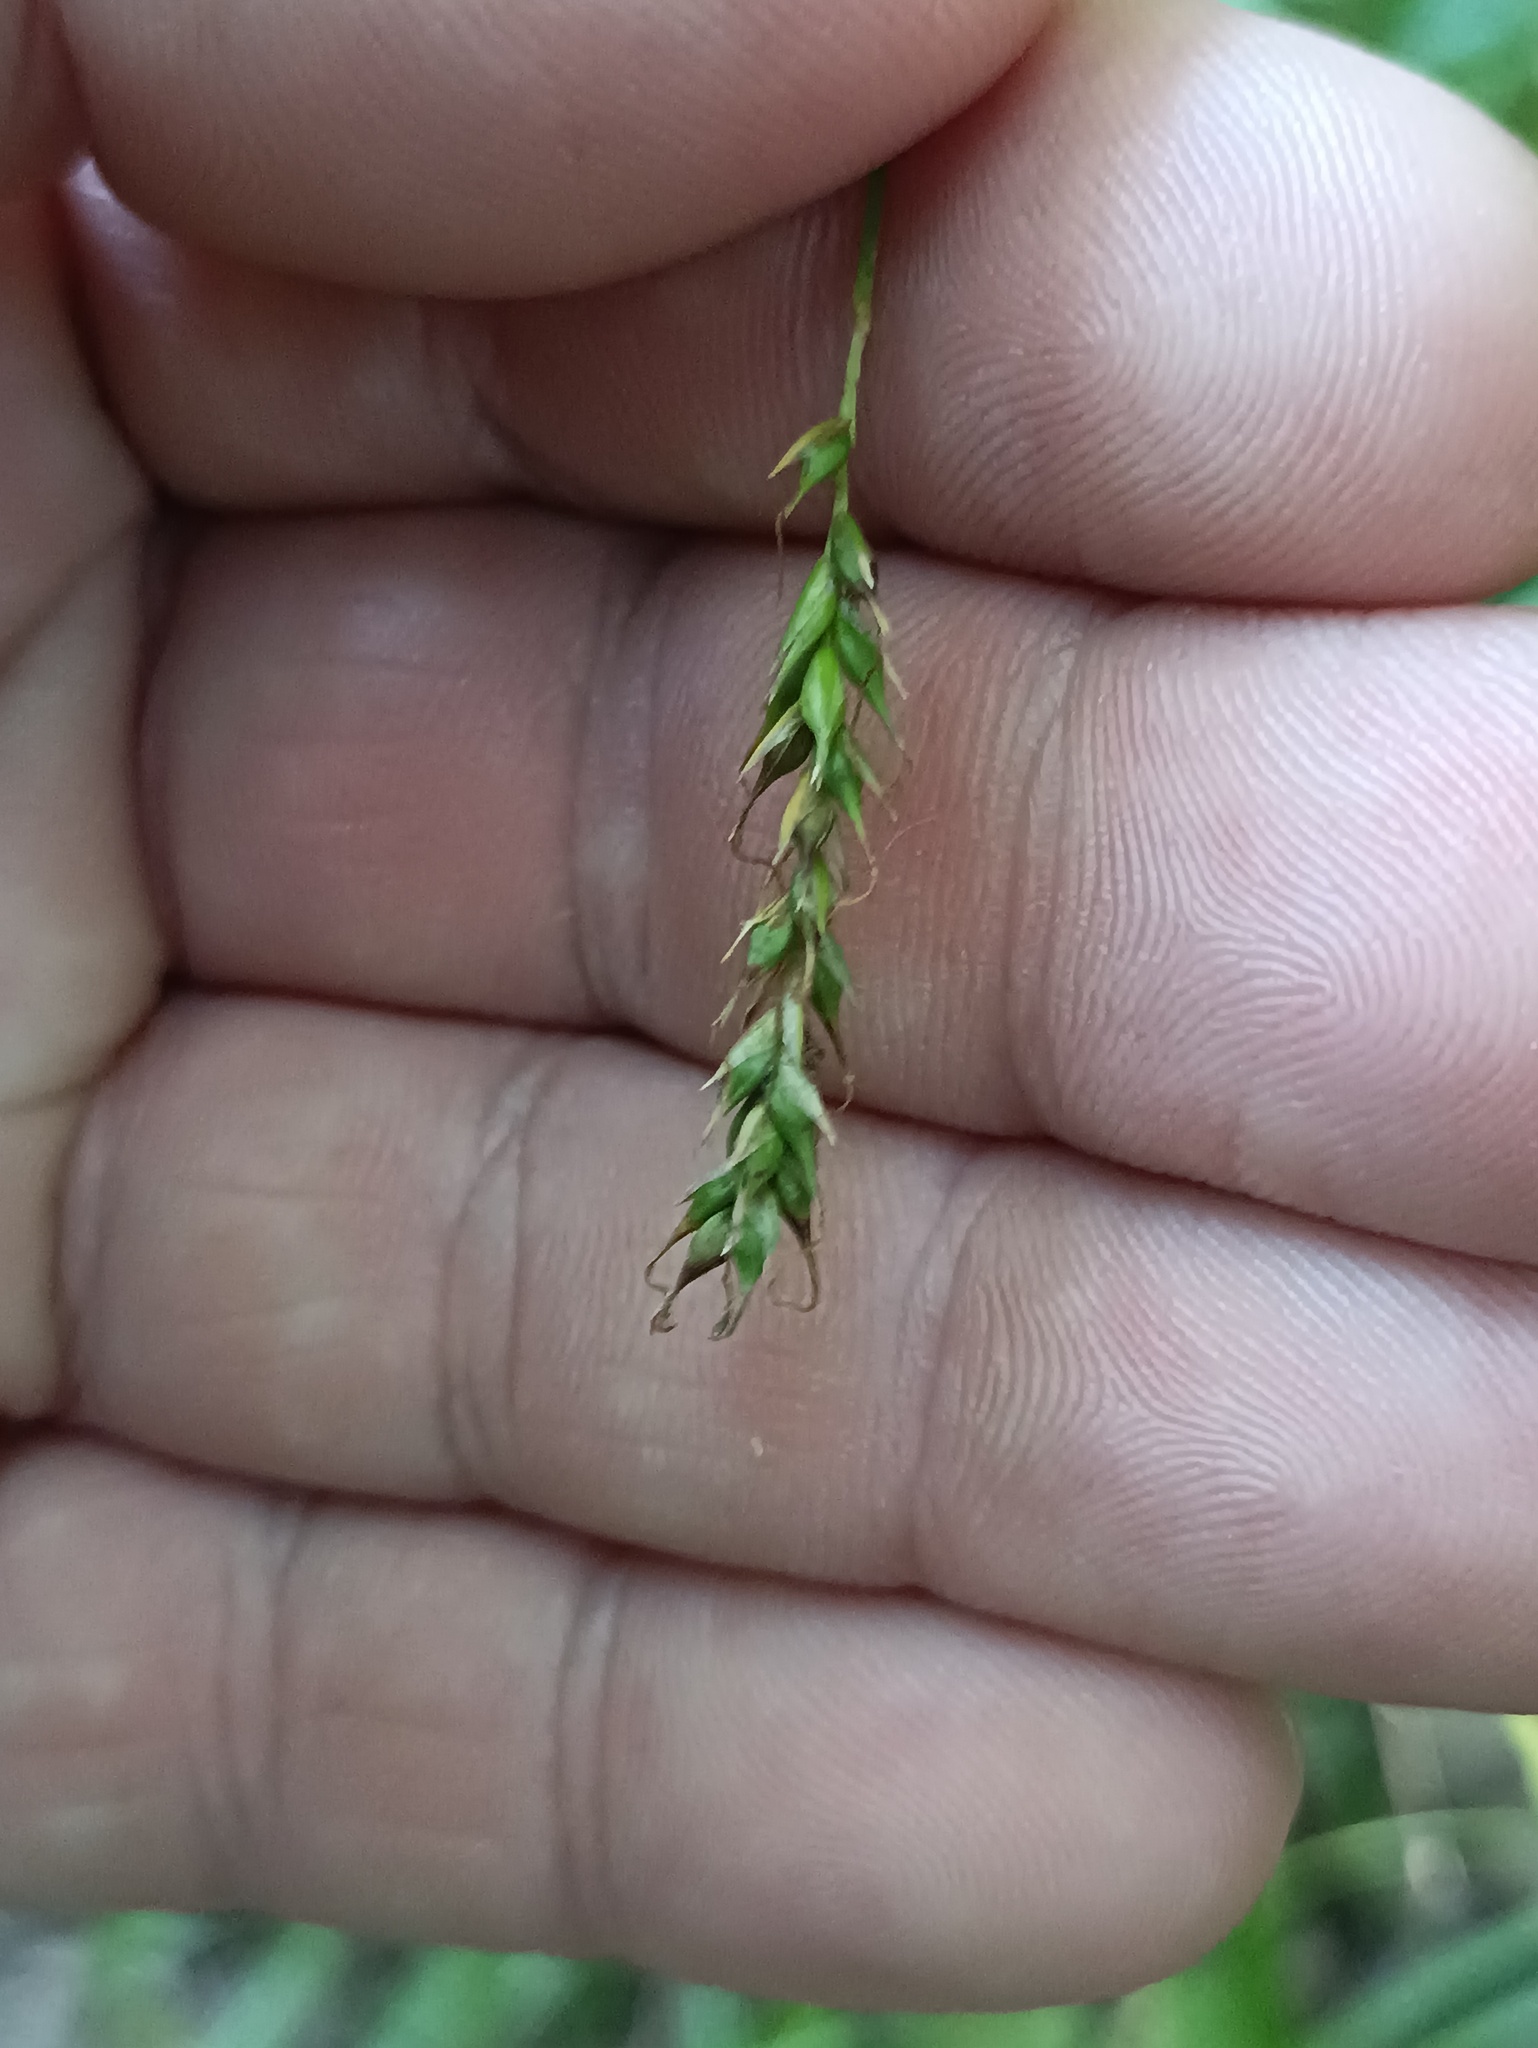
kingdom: Plantae
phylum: Tracheophyta
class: Liliopsida
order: Poales
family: Cyperaceae
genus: Carex
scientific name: Carex sylvatica
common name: Wood-sedge
